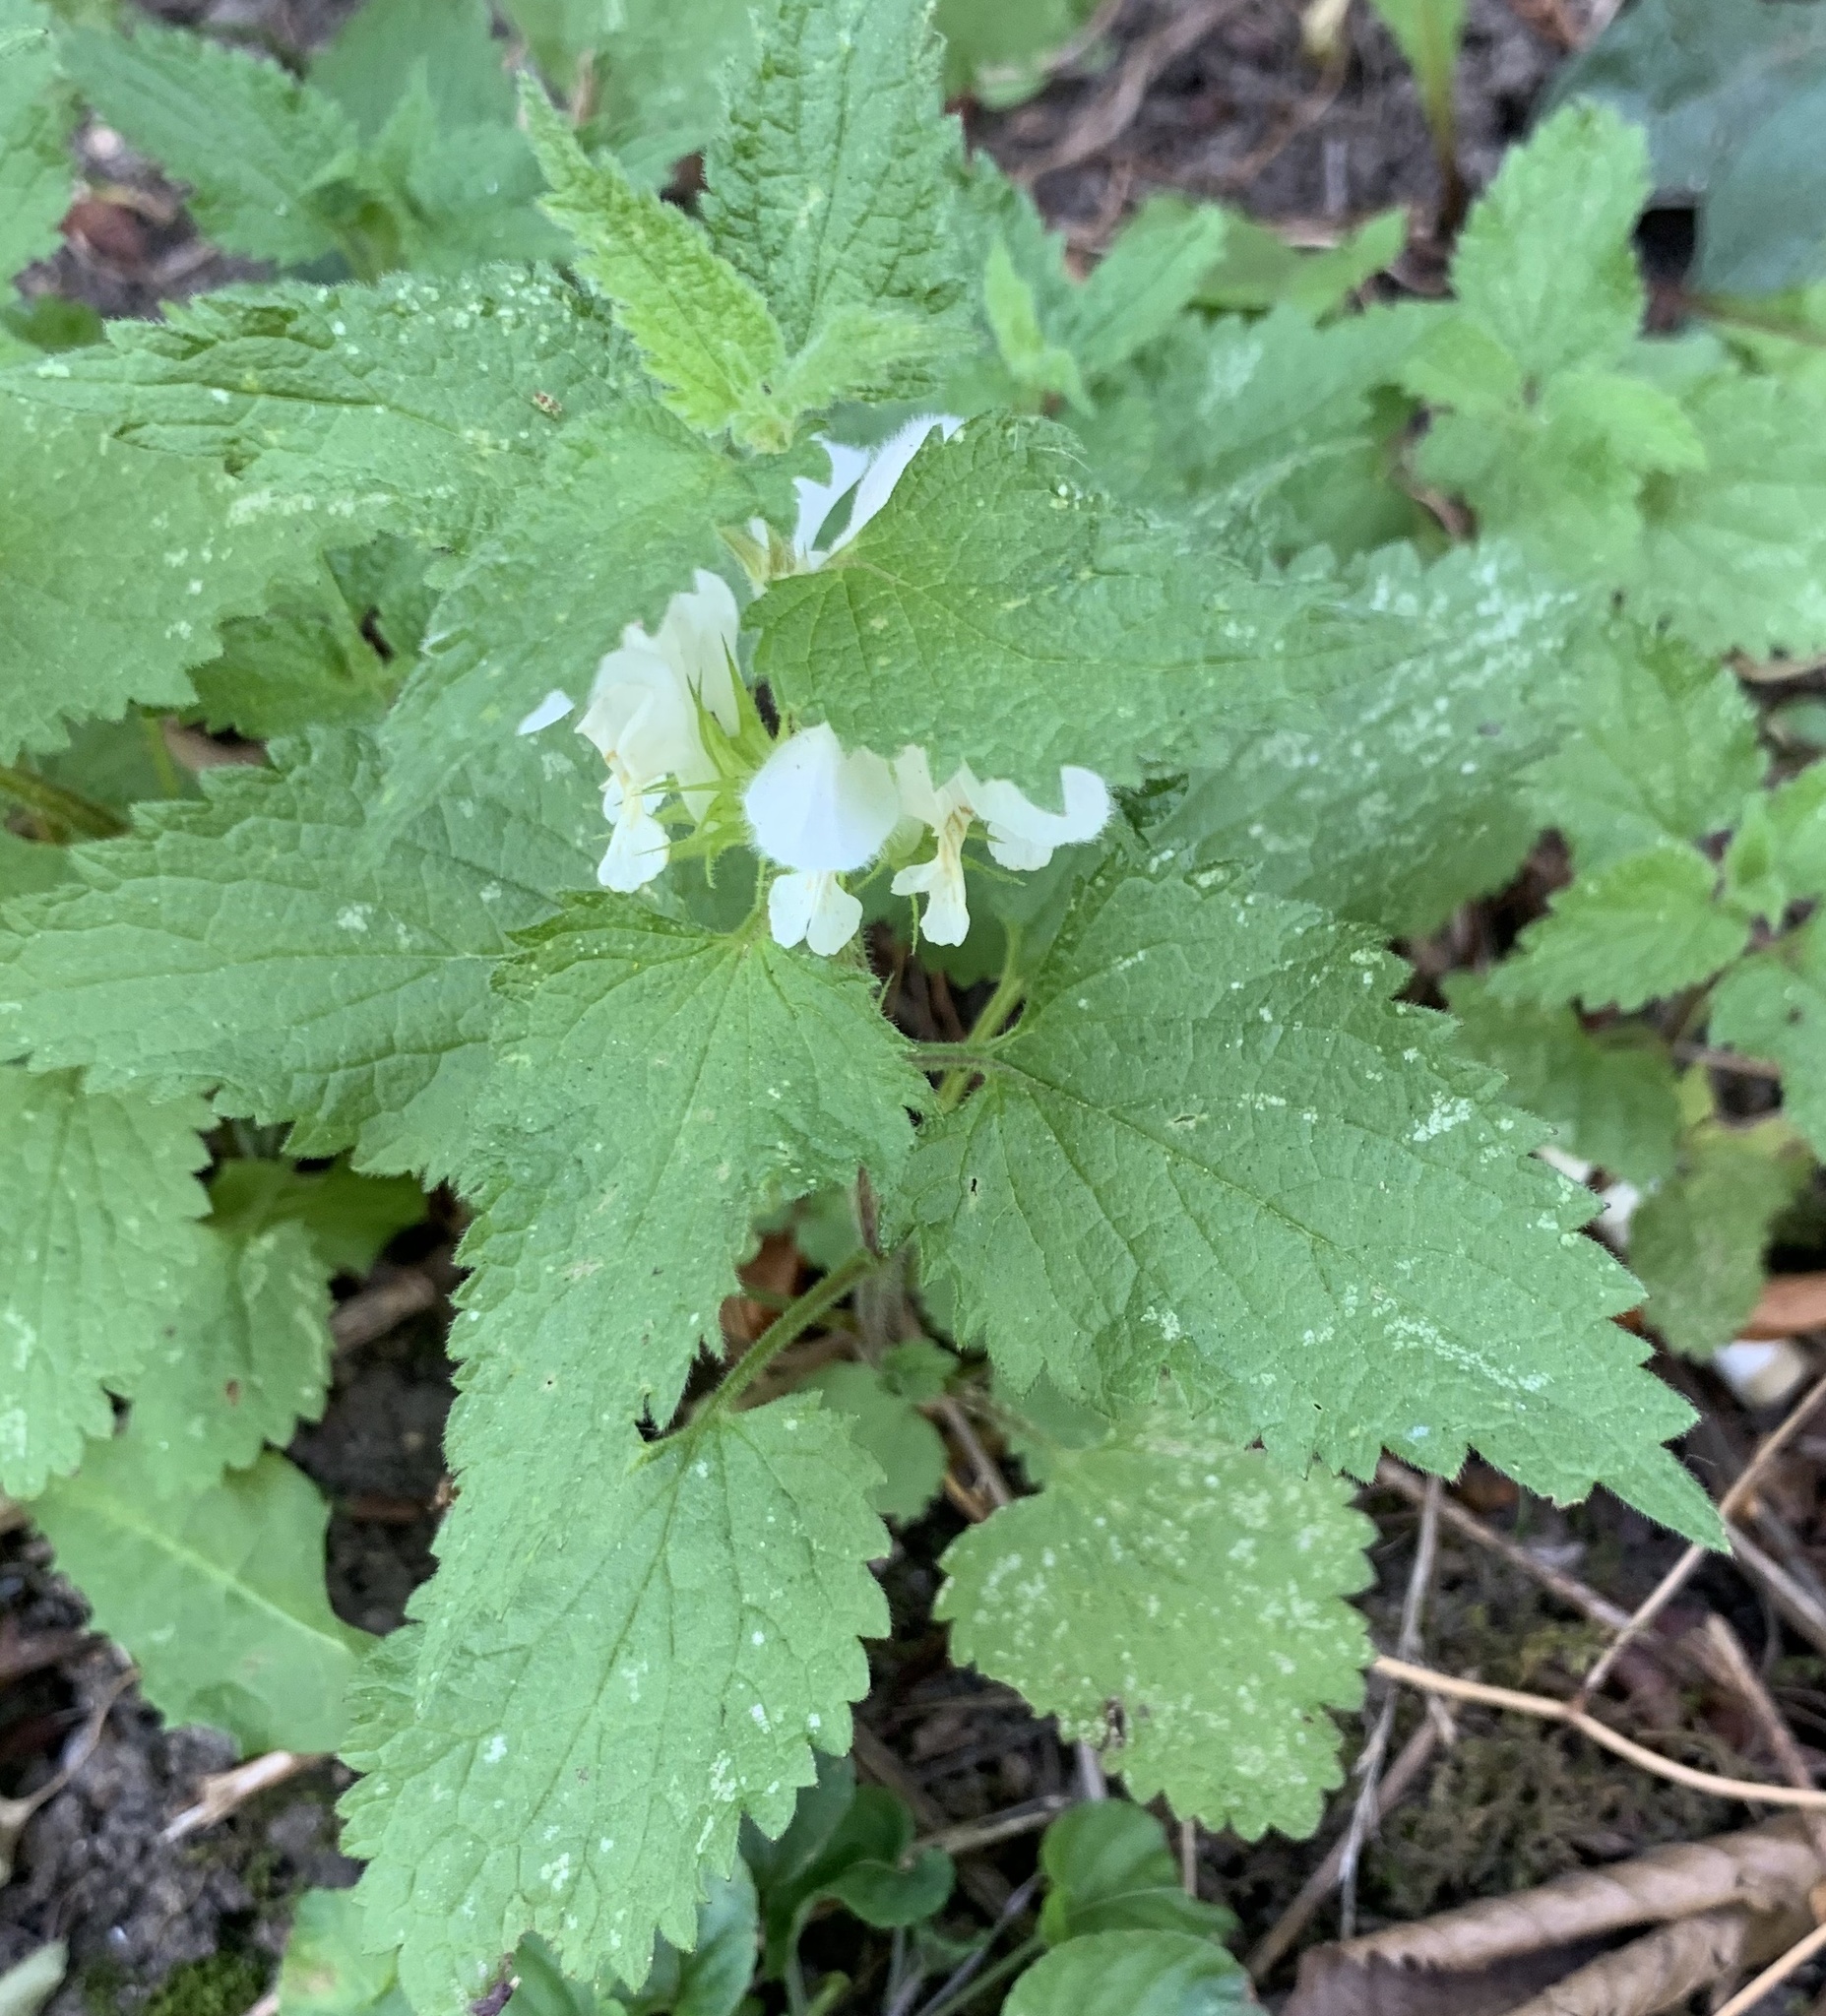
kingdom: Plantae
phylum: Tracheophyta
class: Magnoliopsida
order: Lamiales
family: Lamiaceae
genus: Lamium
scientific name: Lamium album
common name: White dead-nettle
